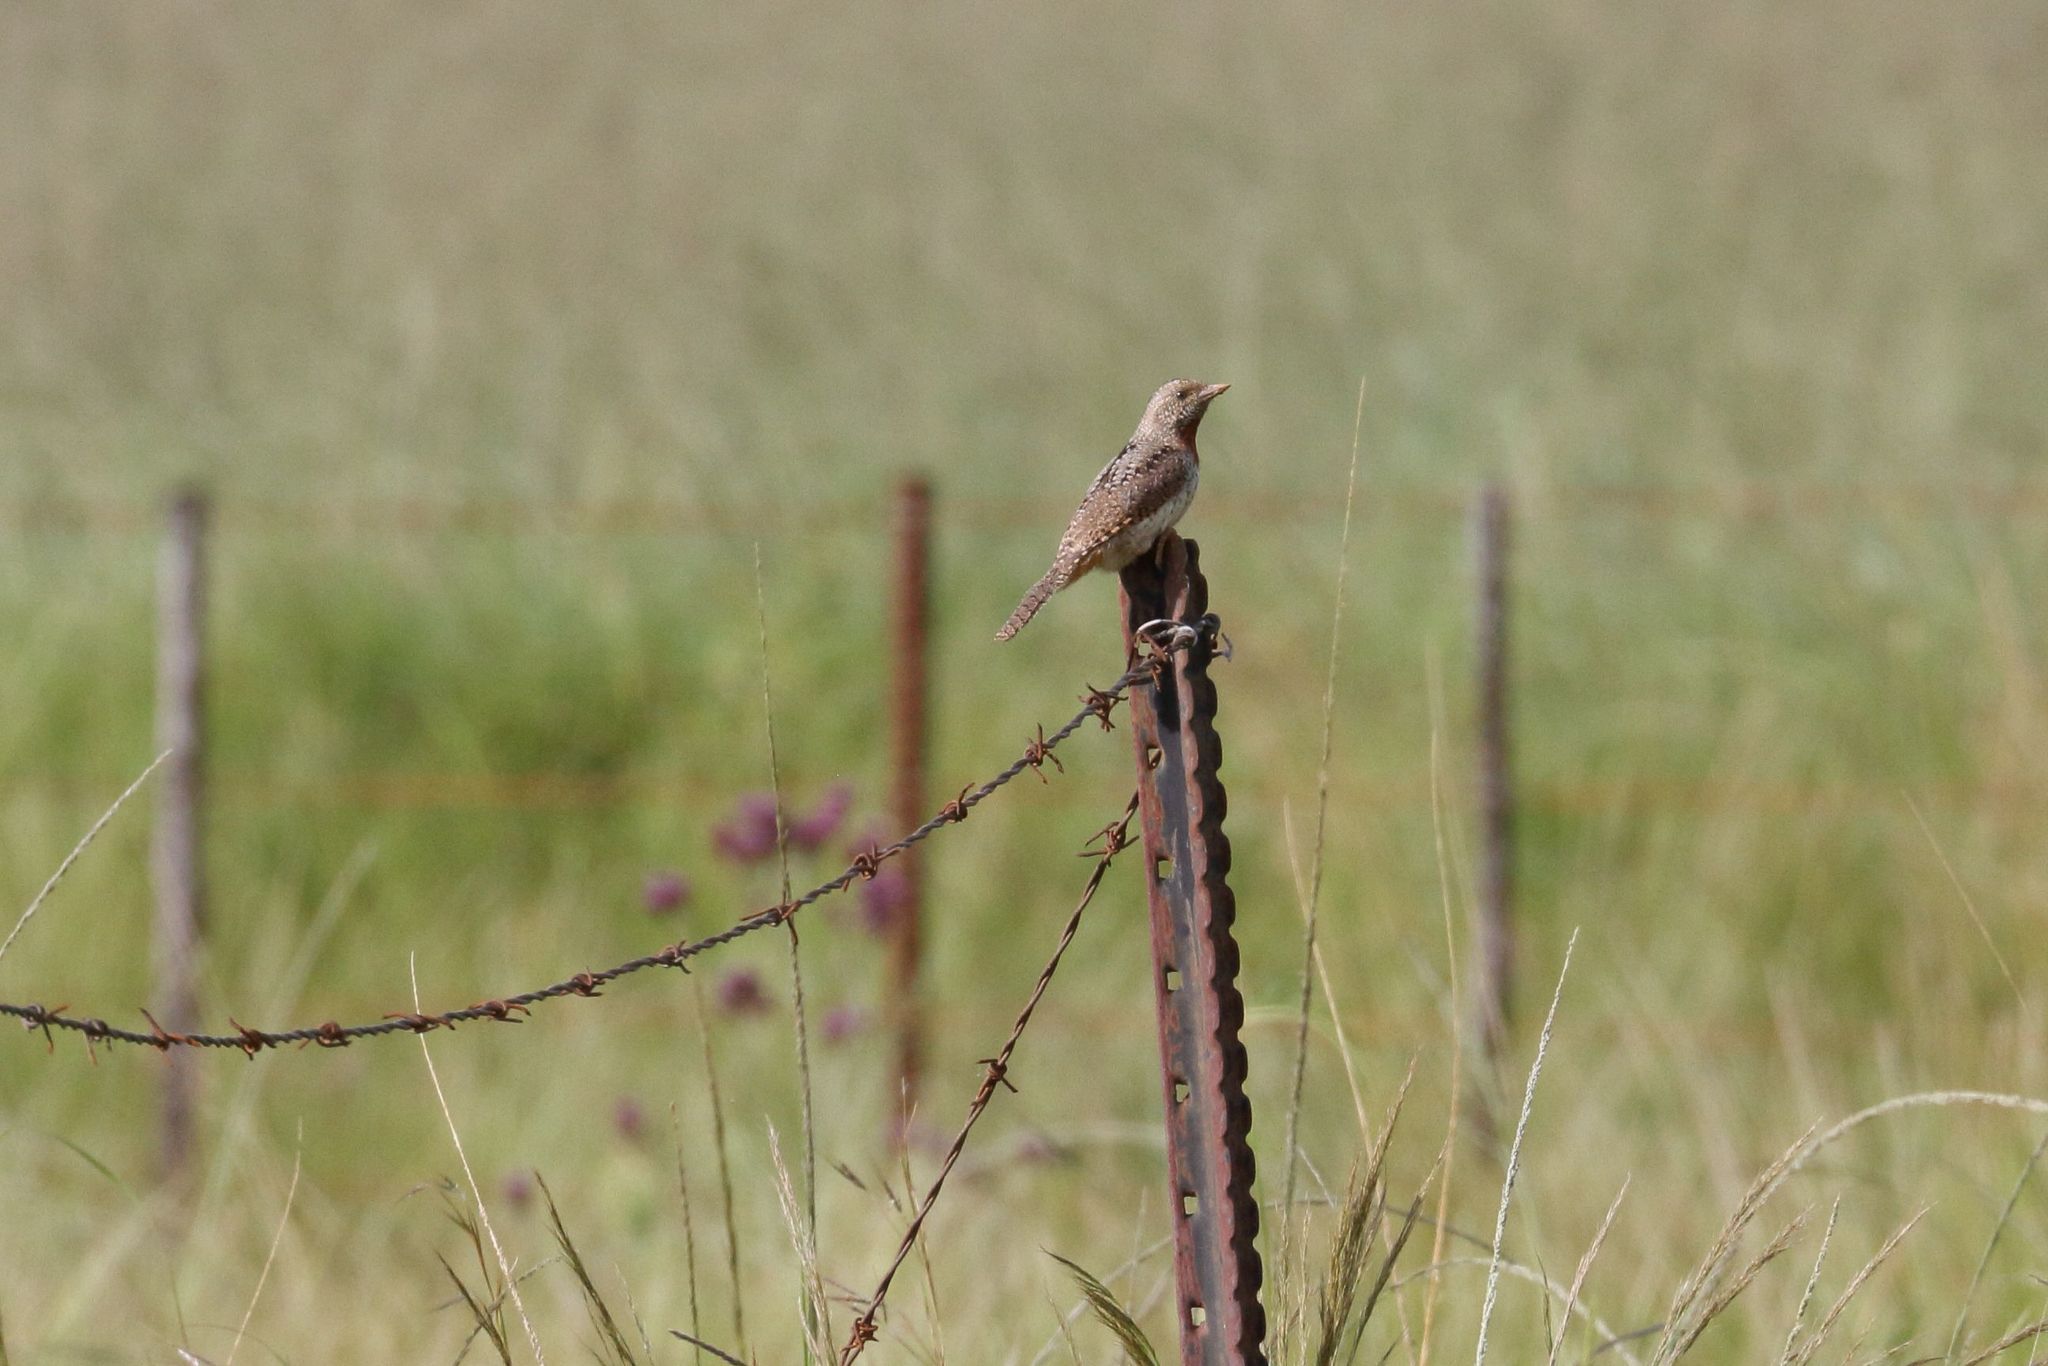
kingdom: Animalia
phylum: Chordata
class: Aves
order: Piciformes
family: Picidae
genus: Jynx
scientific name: Jynx ruficollis
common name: Red-throated wryneck
